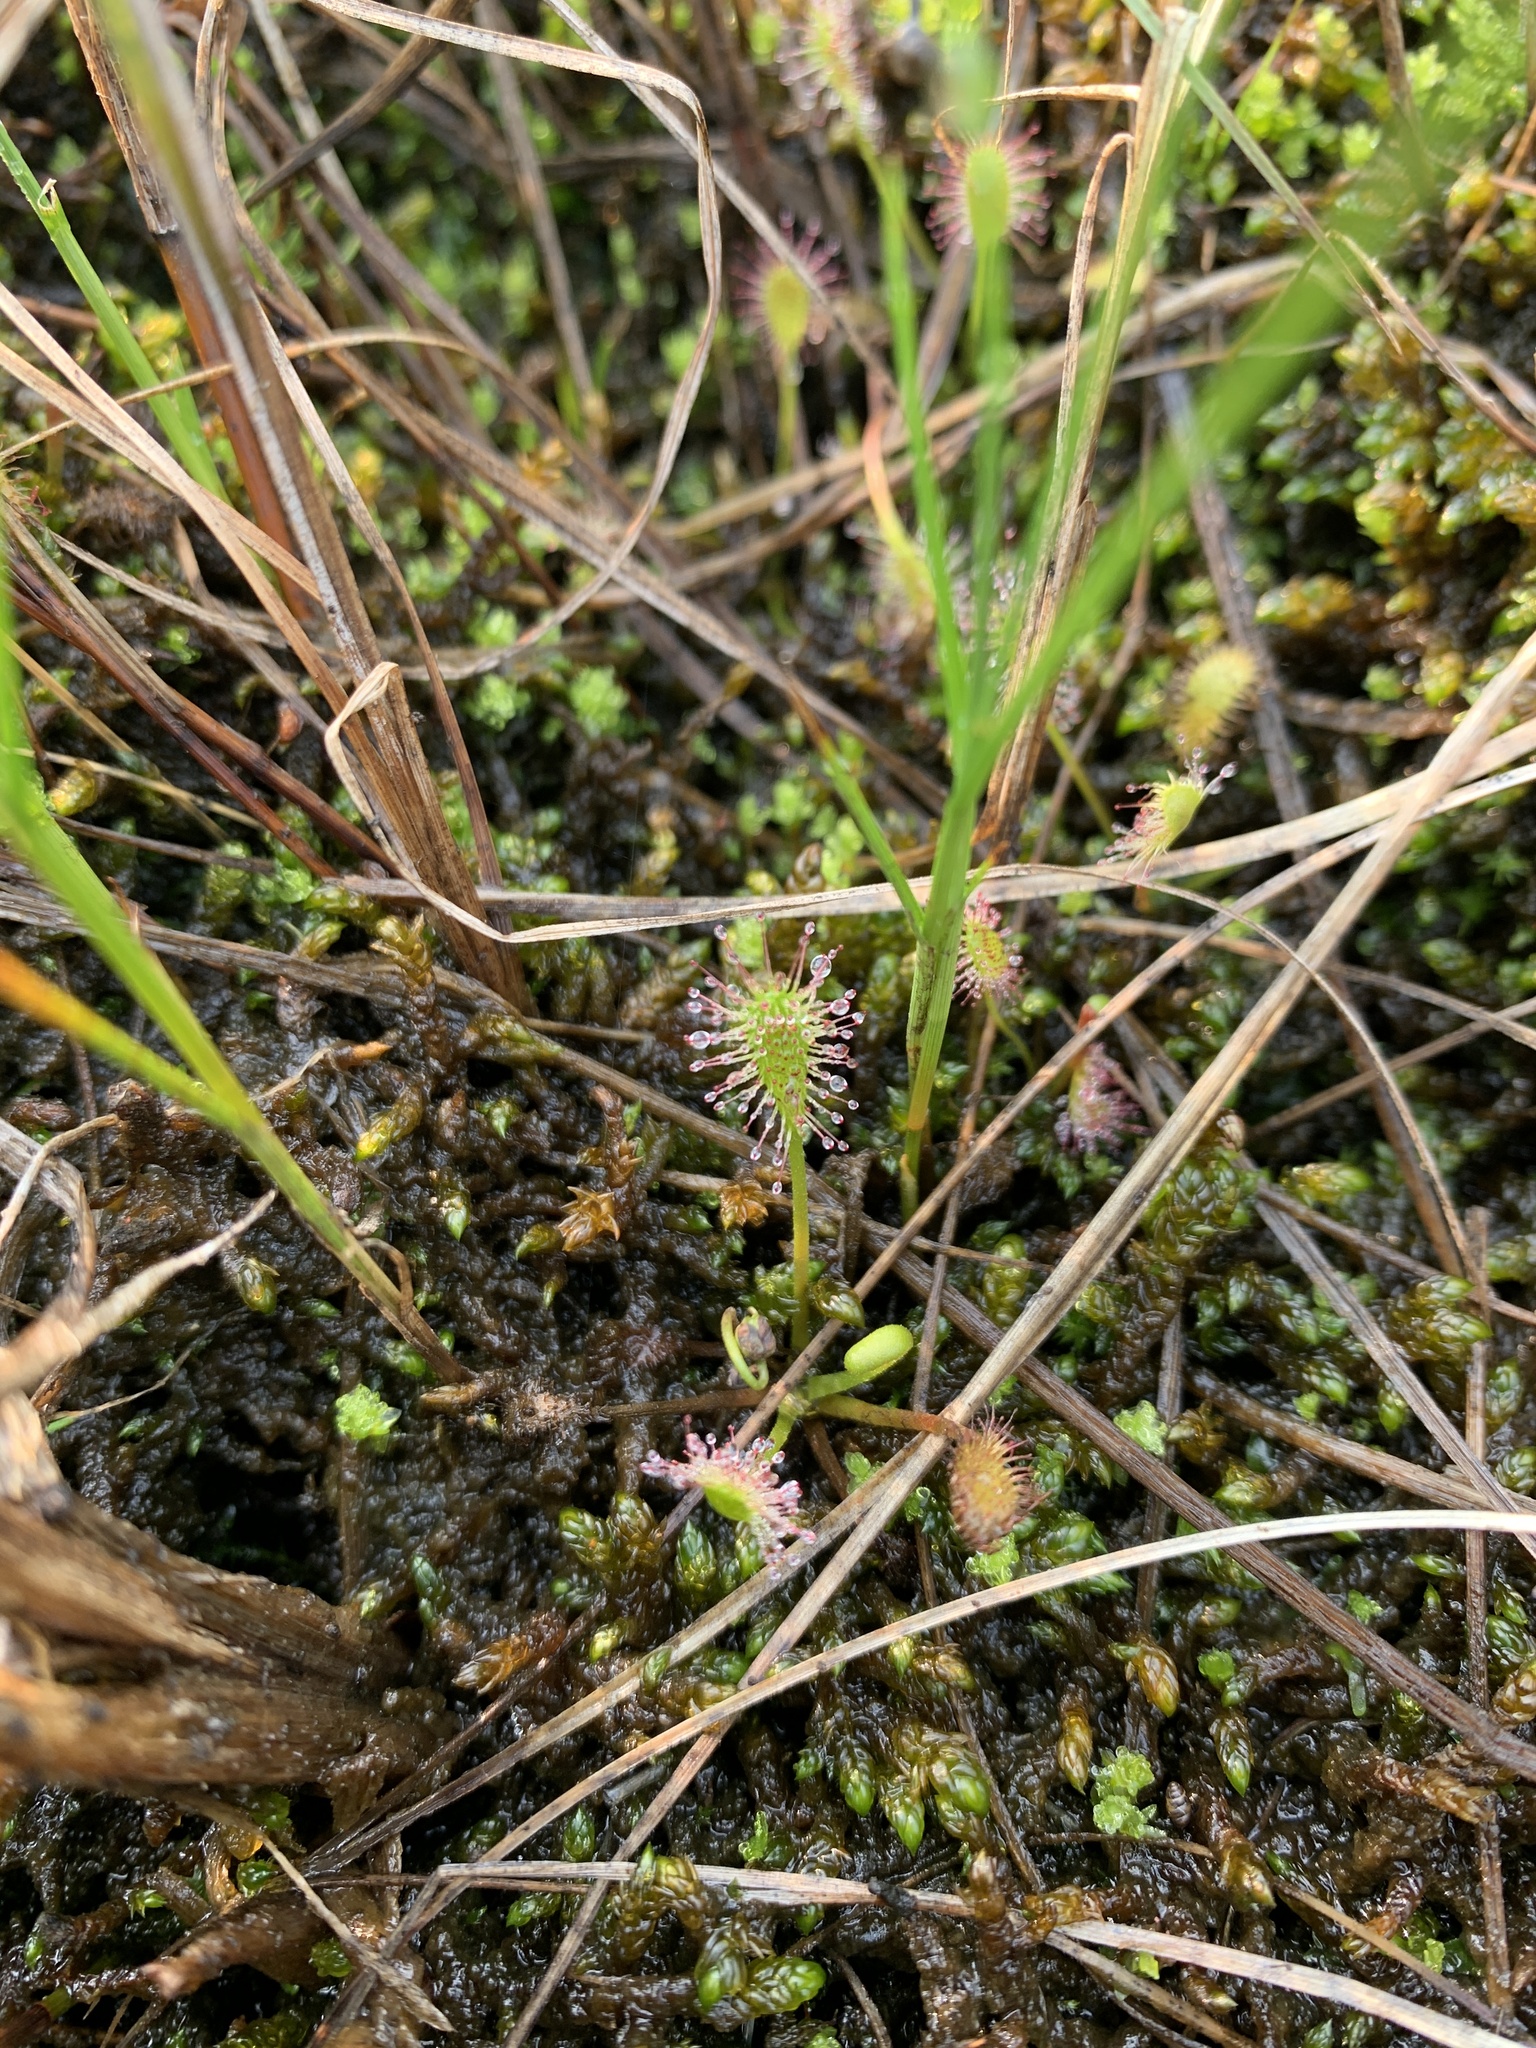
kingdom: Plantae
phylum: Tracheophyta
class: Magnoliopsida
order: Caryophyllales
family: Droseraceae
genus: Drosera
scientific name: Drosera anglica
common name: Great sundew
